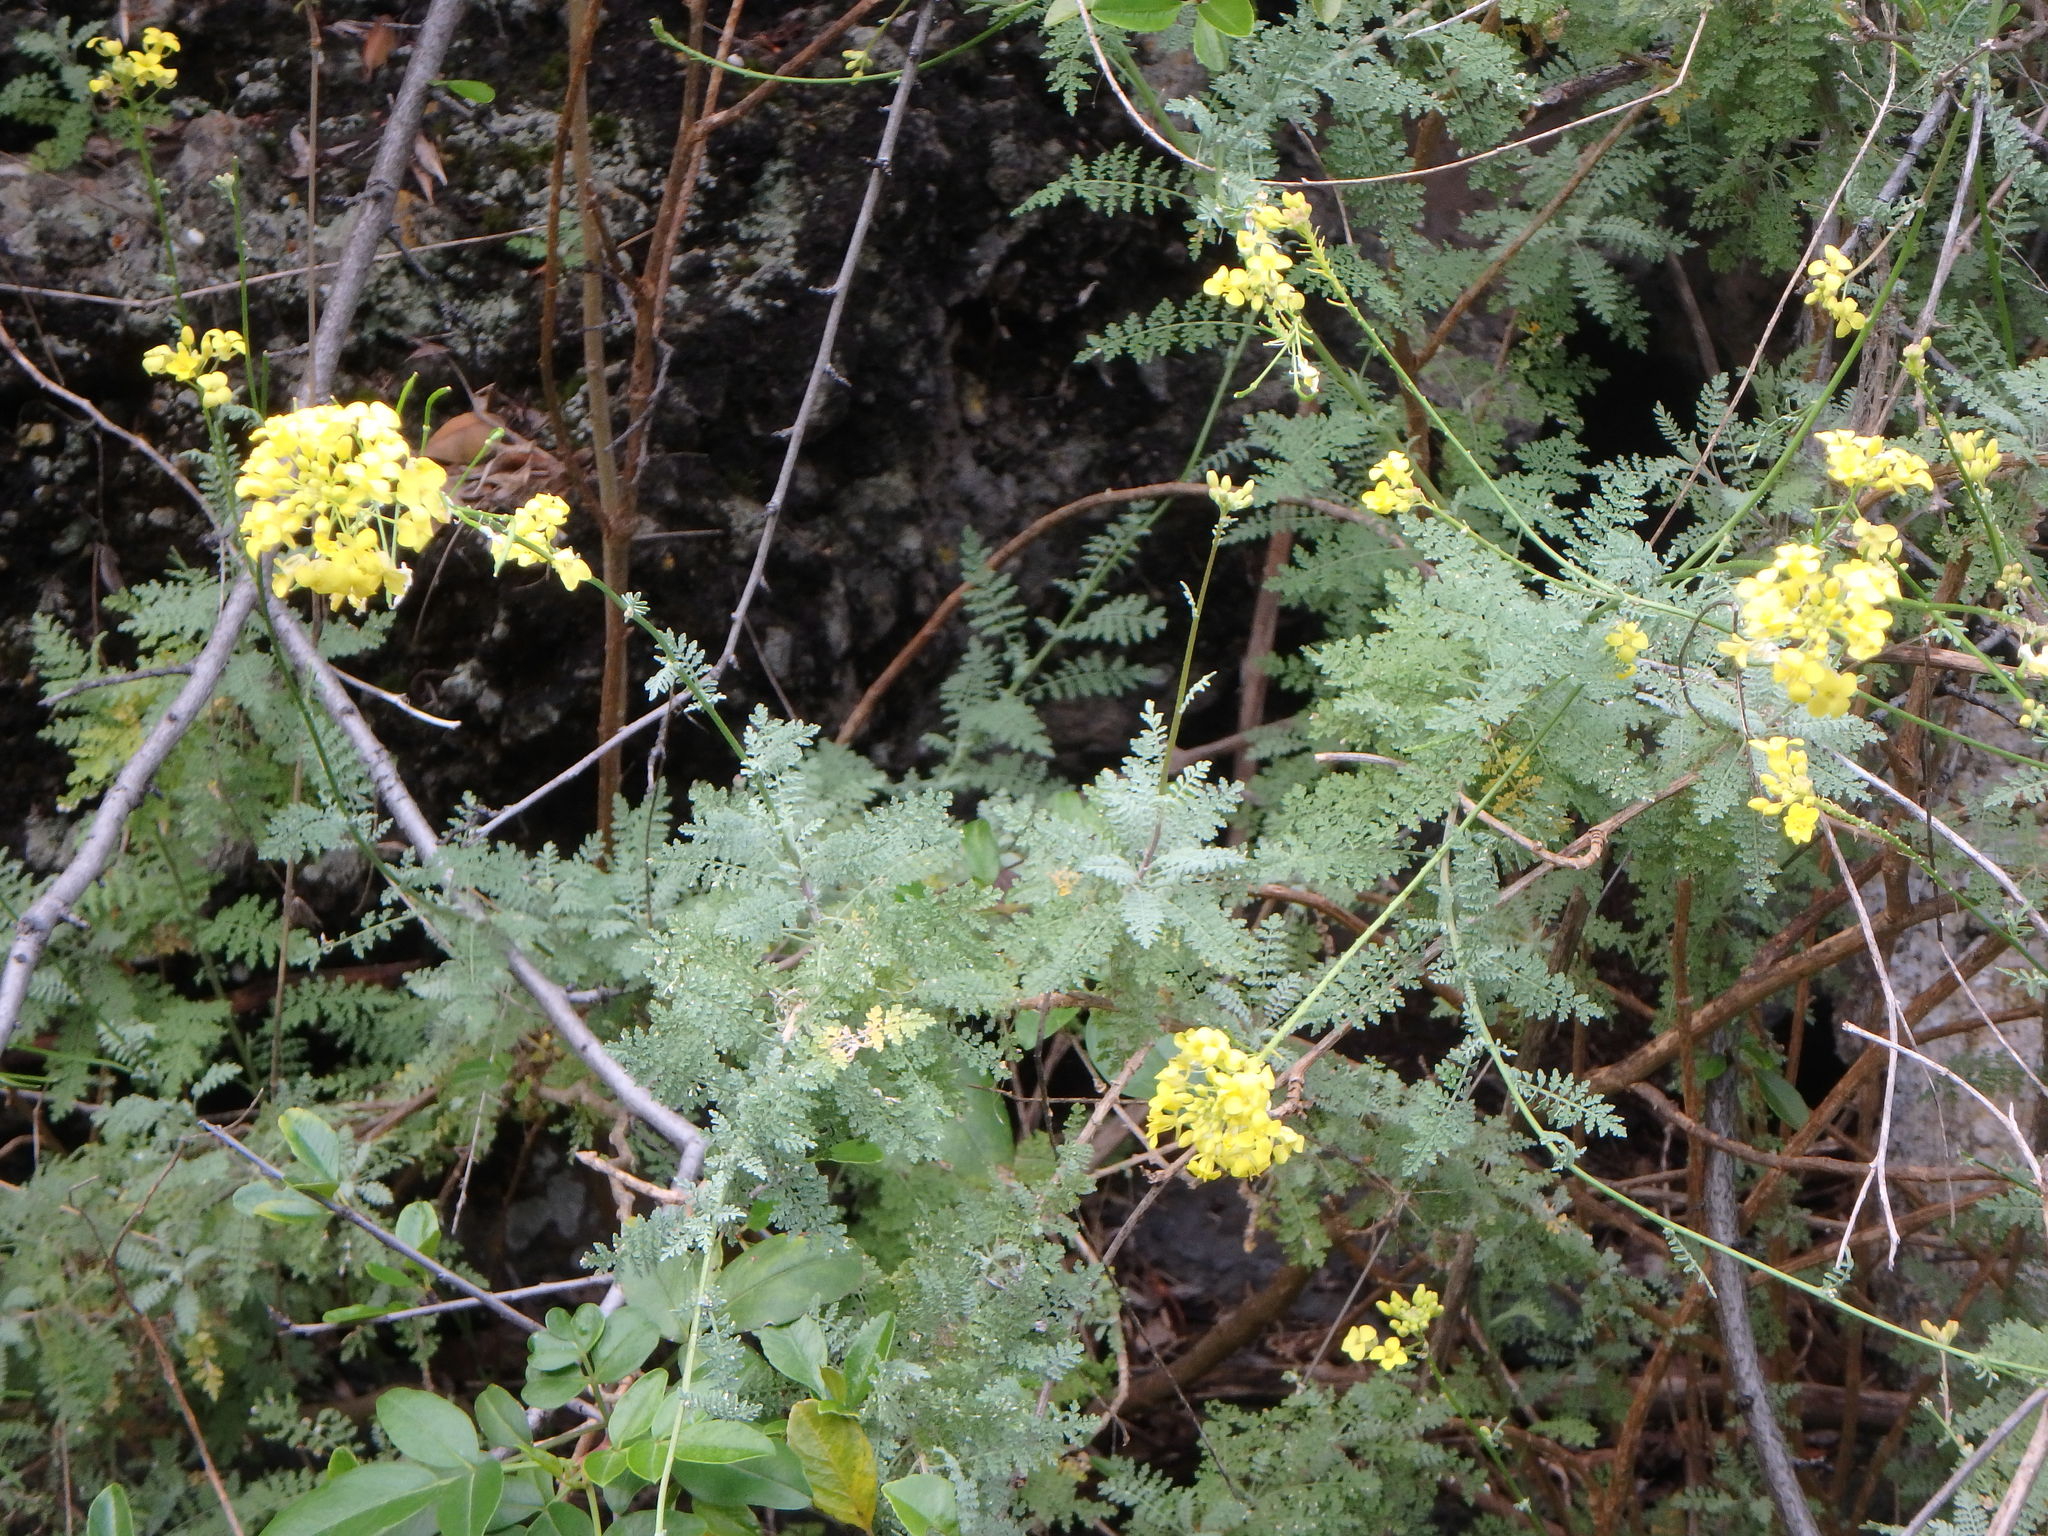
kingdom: Plantae
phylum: Tracheophyta
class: Magnoliopsida
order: Brassicales
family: Brassicaceae
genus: Descurainia
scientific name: Descurainia millefolia
